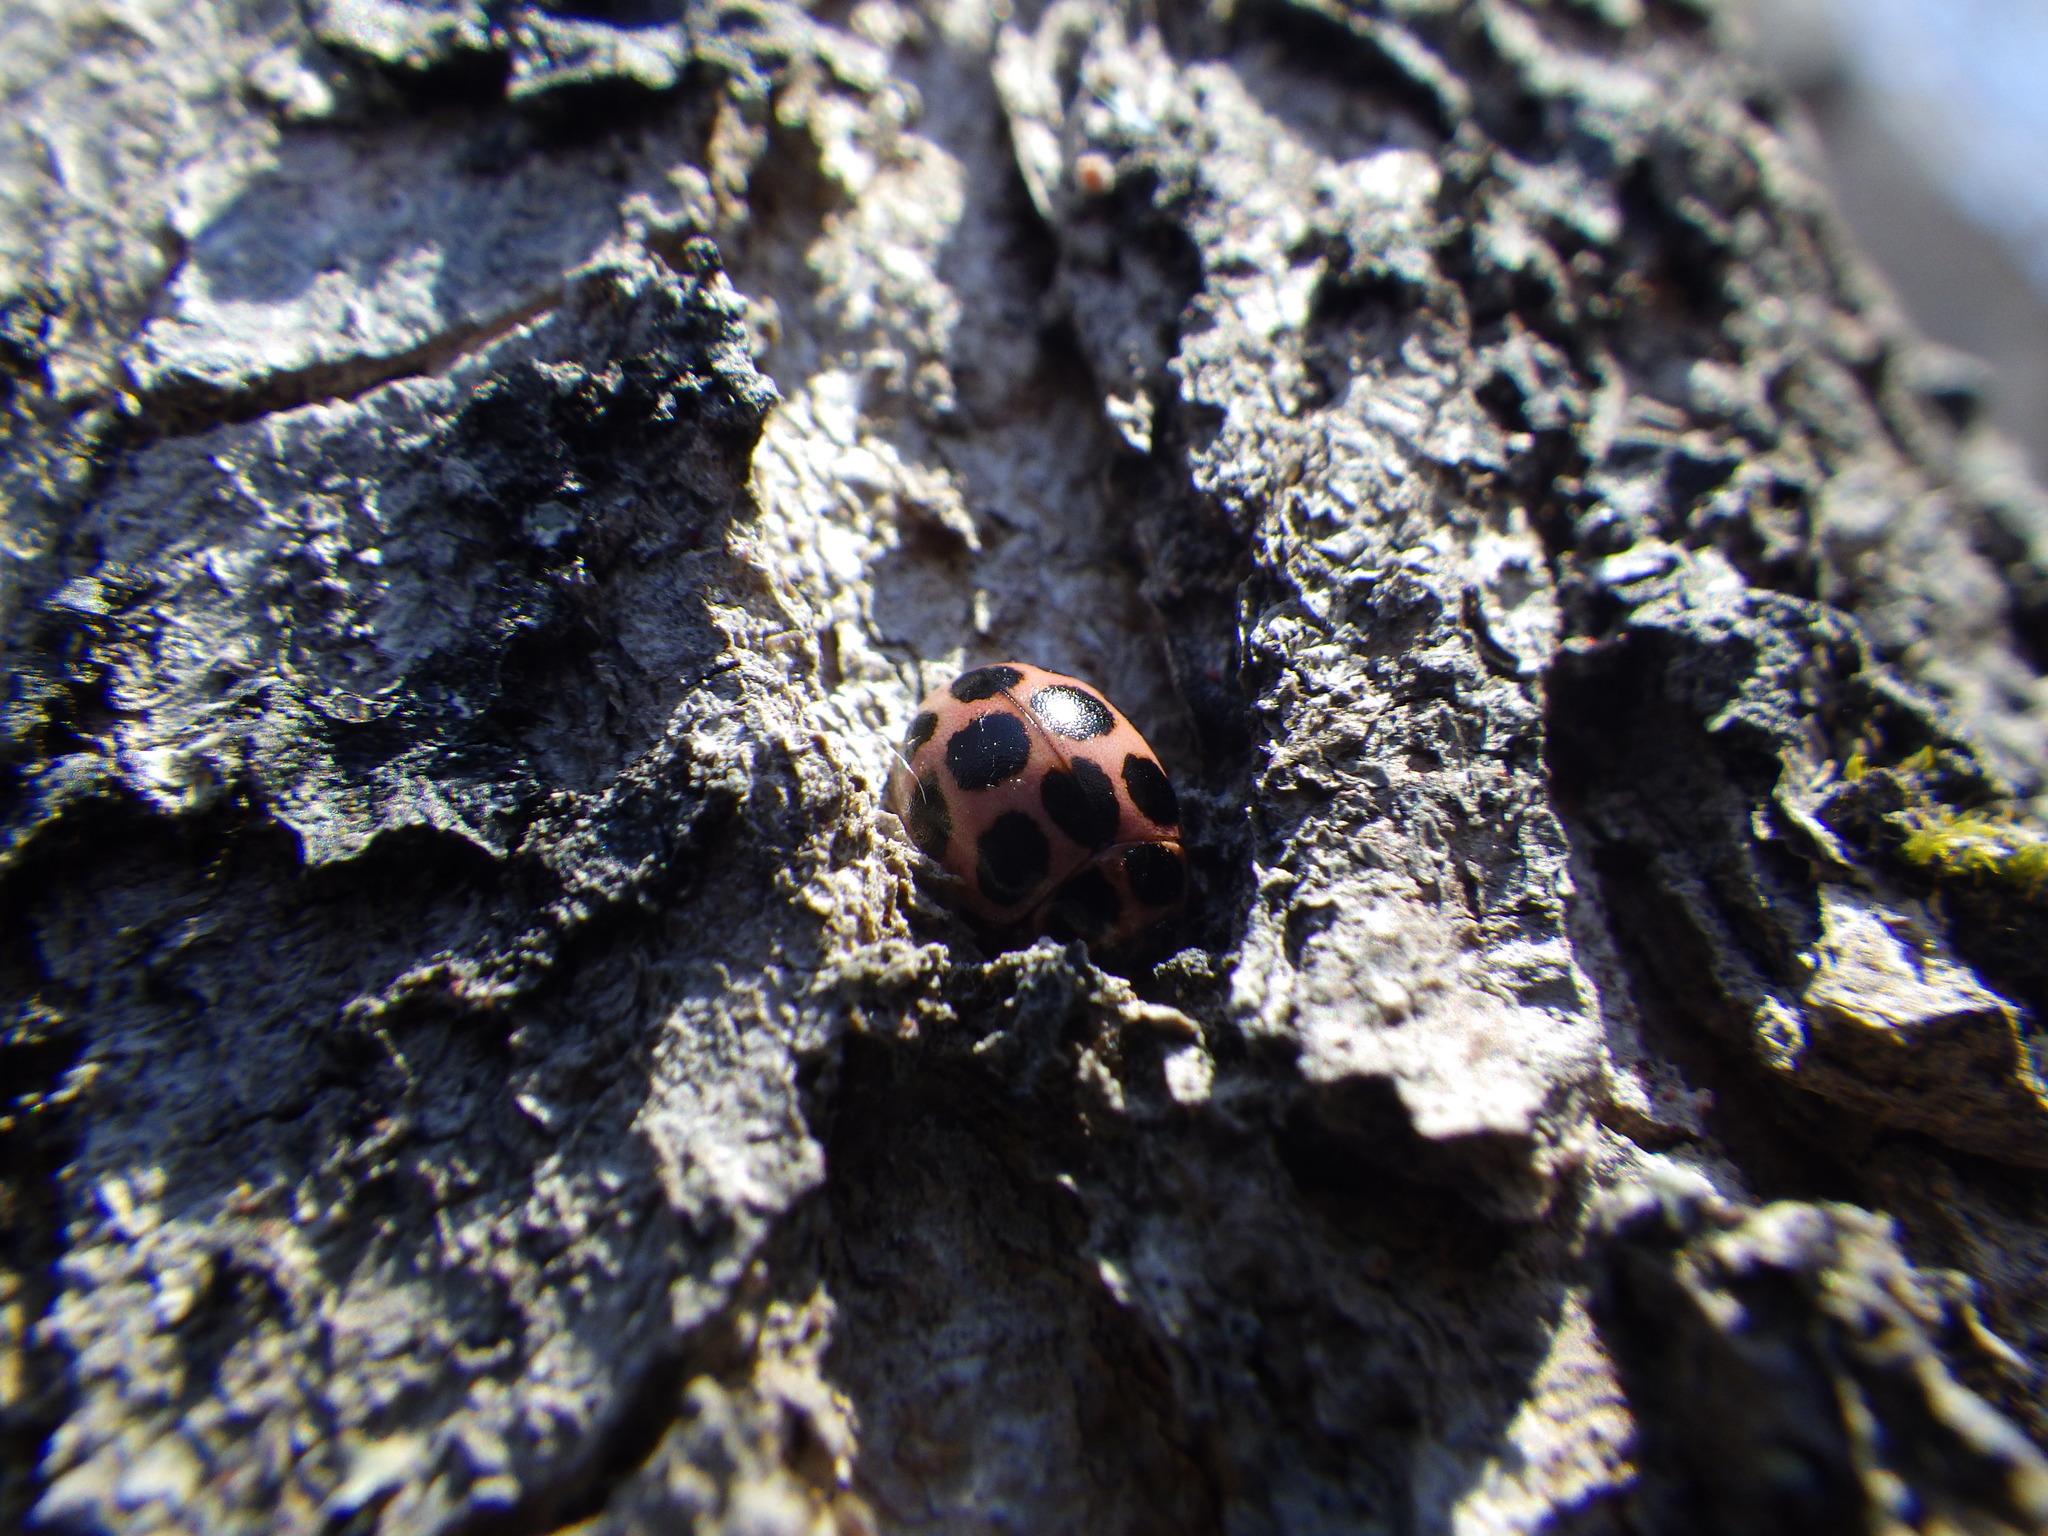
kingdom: Animalia
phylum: Arthropoda
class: Insecta
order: Coleoptera
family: Coccinellidae
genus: Calvia
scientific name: Calvia quatuordecimguttata
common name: Cream-spot ladybird
